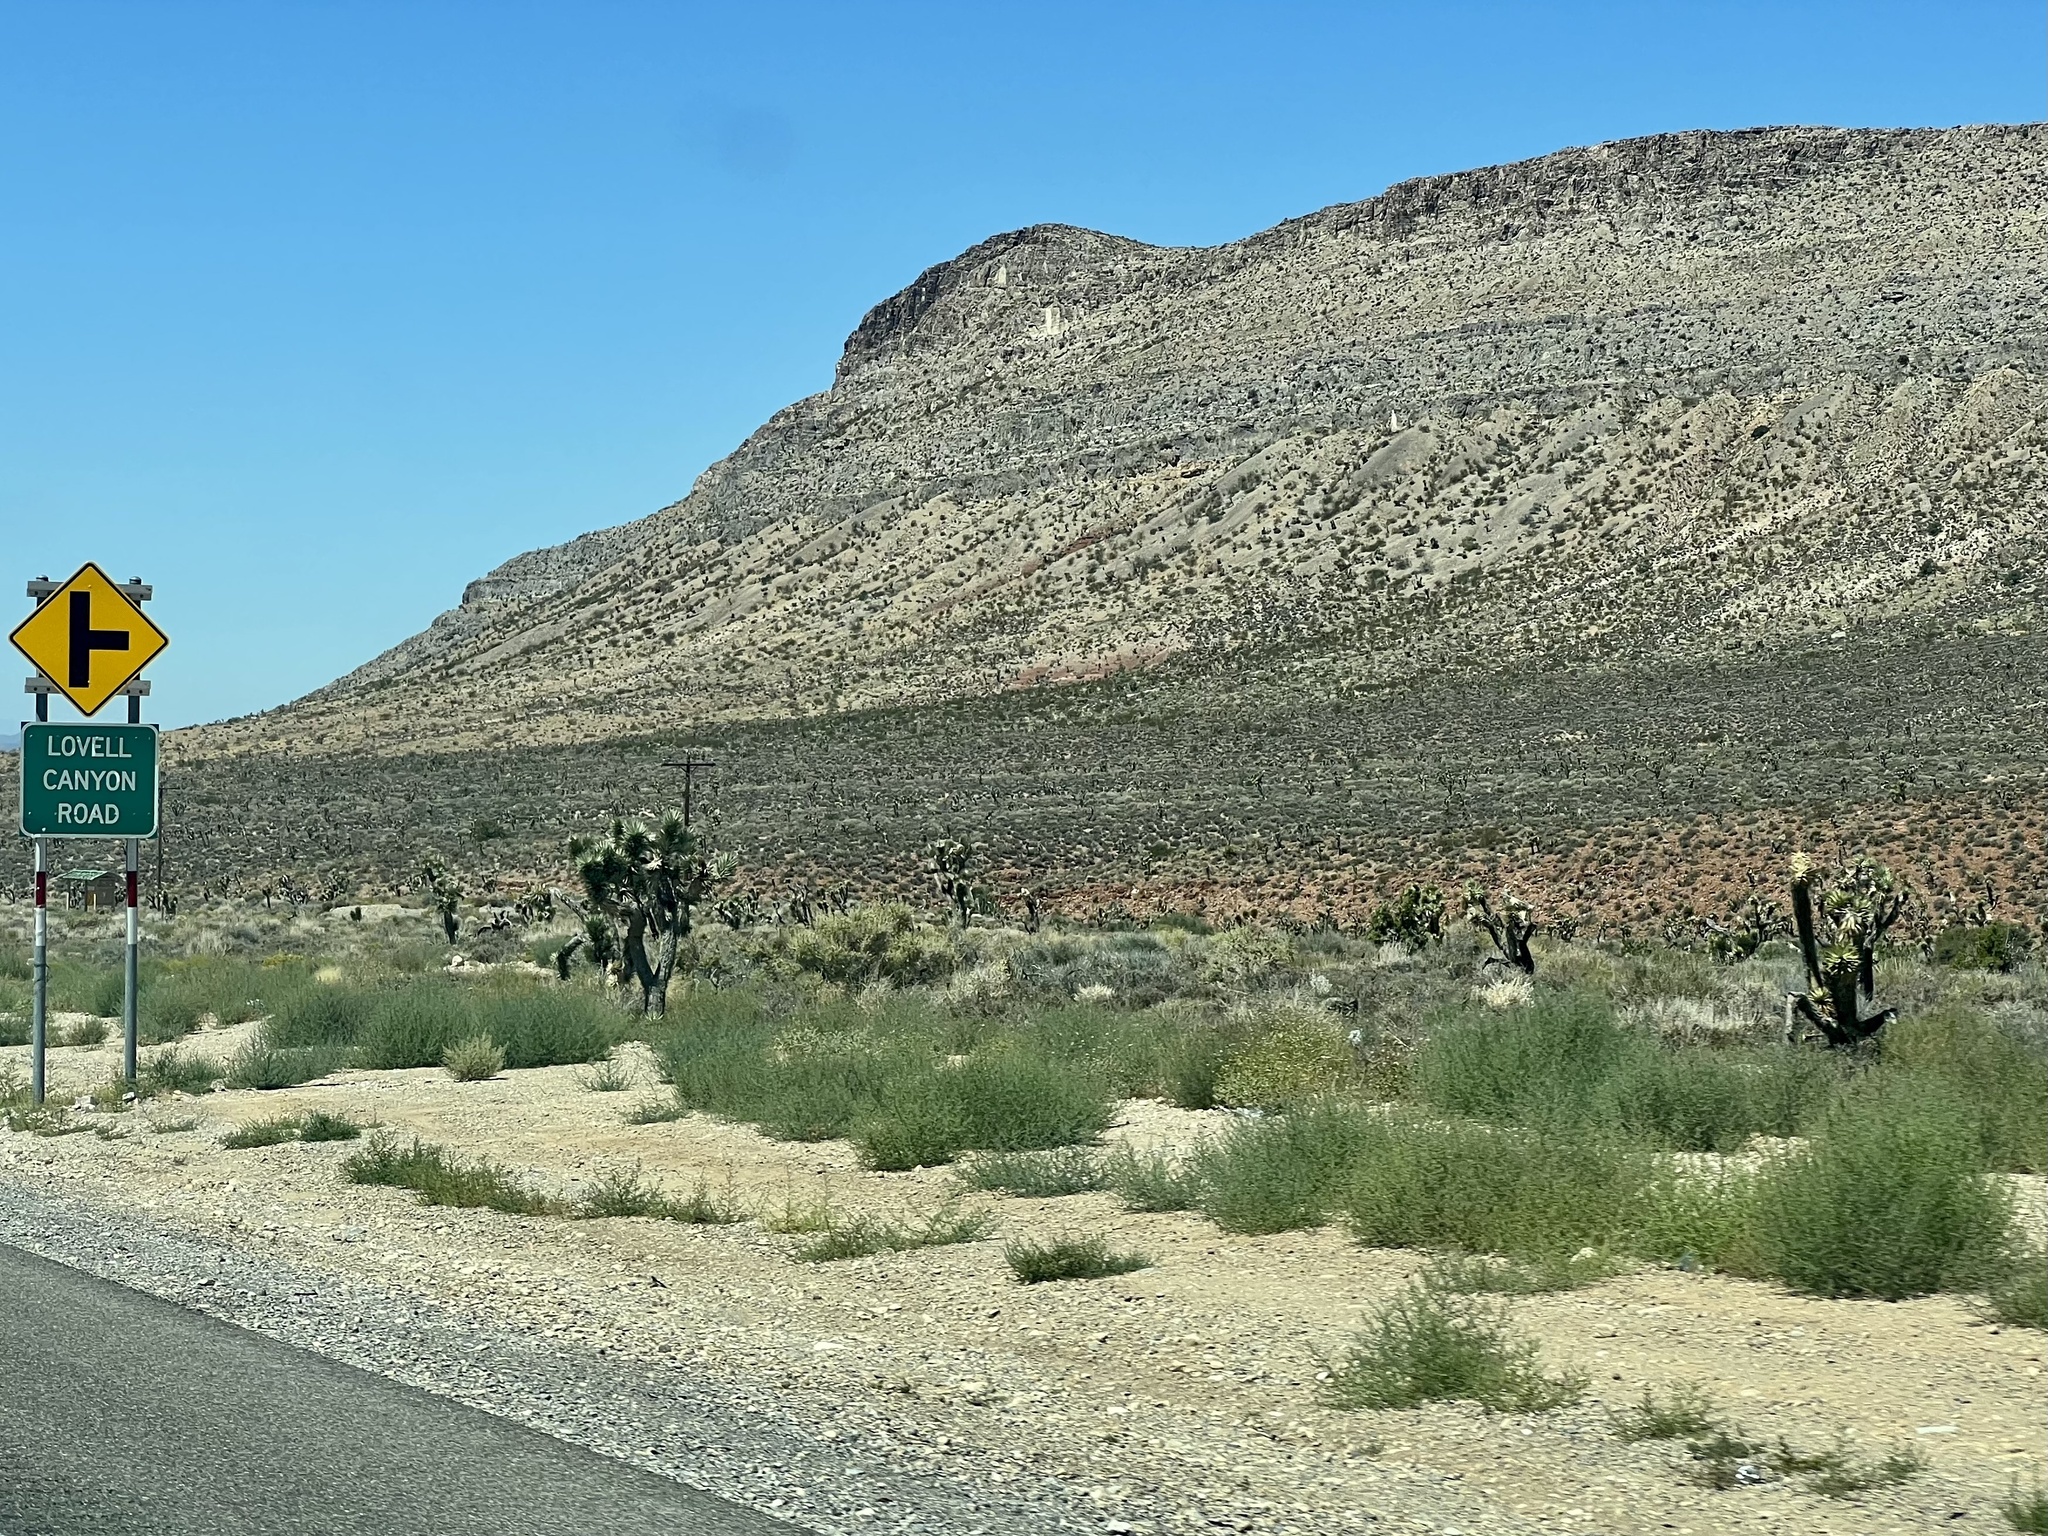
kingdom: Plantae
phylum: Tracheophyta
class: Liliopsida
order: Asparagales
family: Asparagaceae
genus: Yucca
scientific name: Yucca brevifolia
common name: Joshua tree
